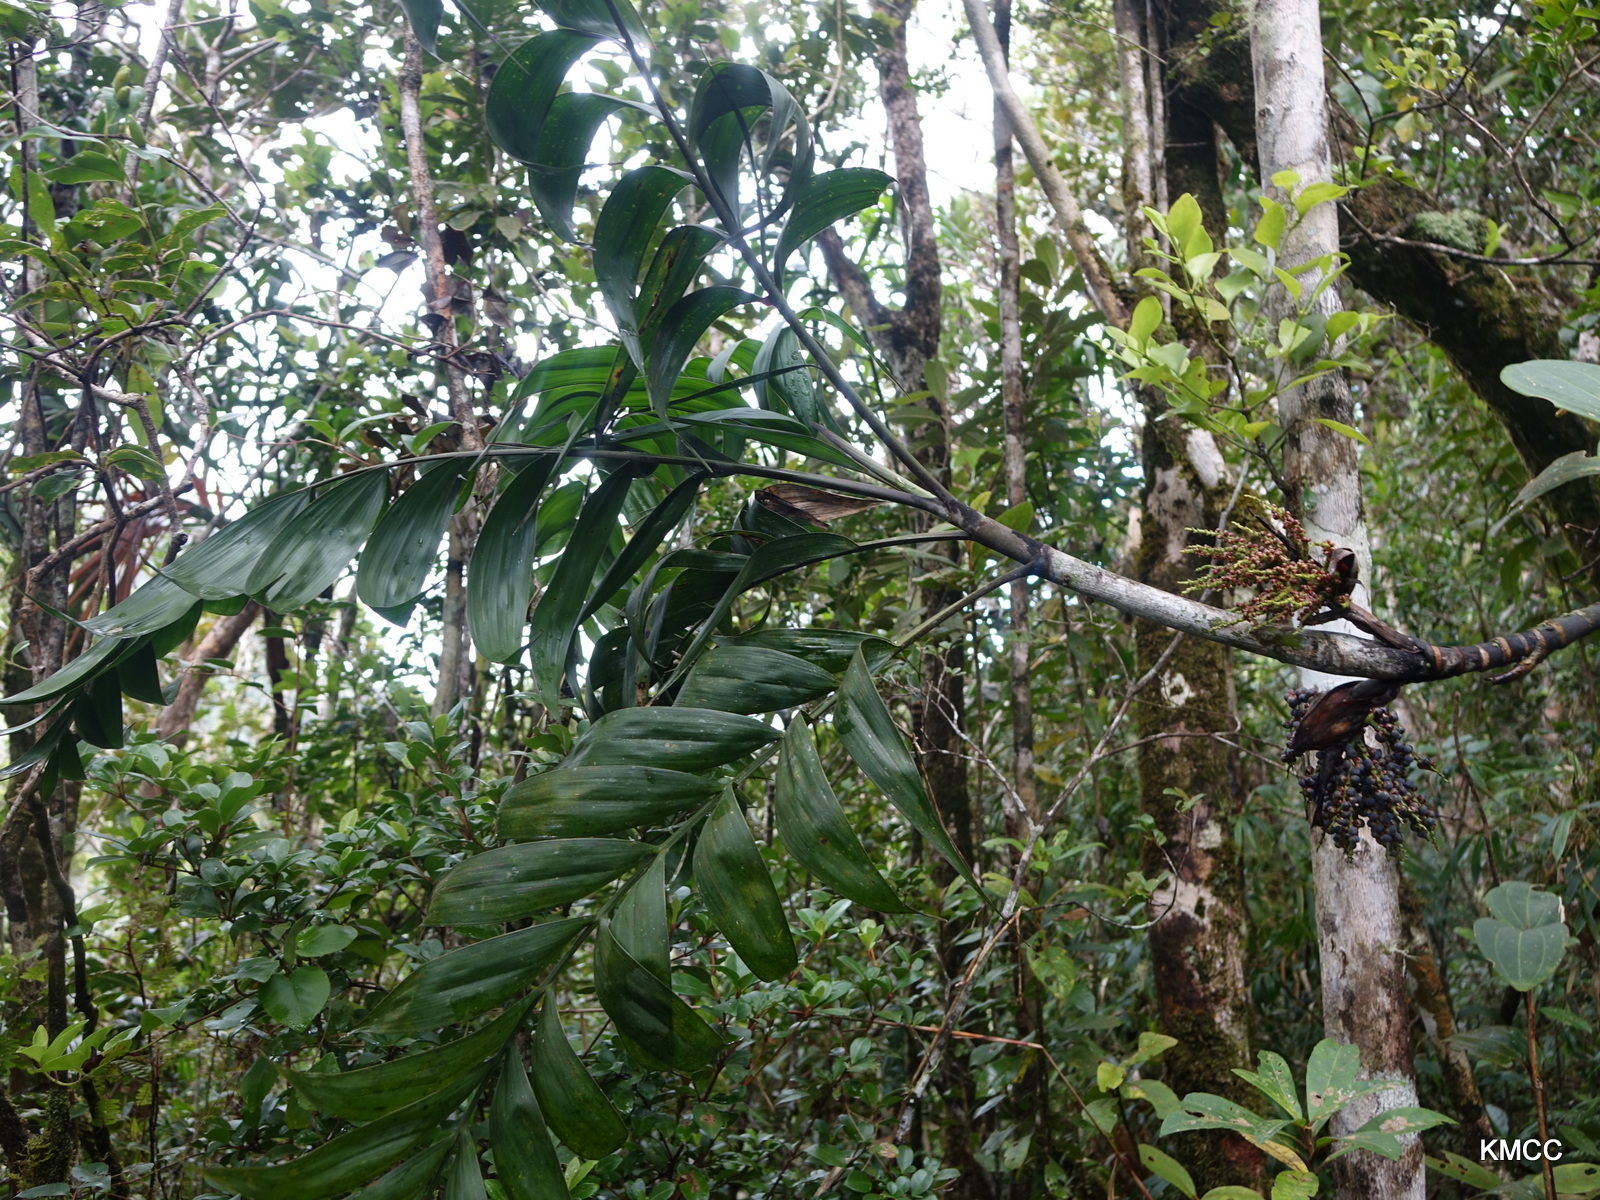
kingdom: Plantae
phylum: Tracheophyta
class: Liliopsida
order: Arecales
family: Arecaceae
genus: Dypsis
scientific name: Dypsis andrianatonga
